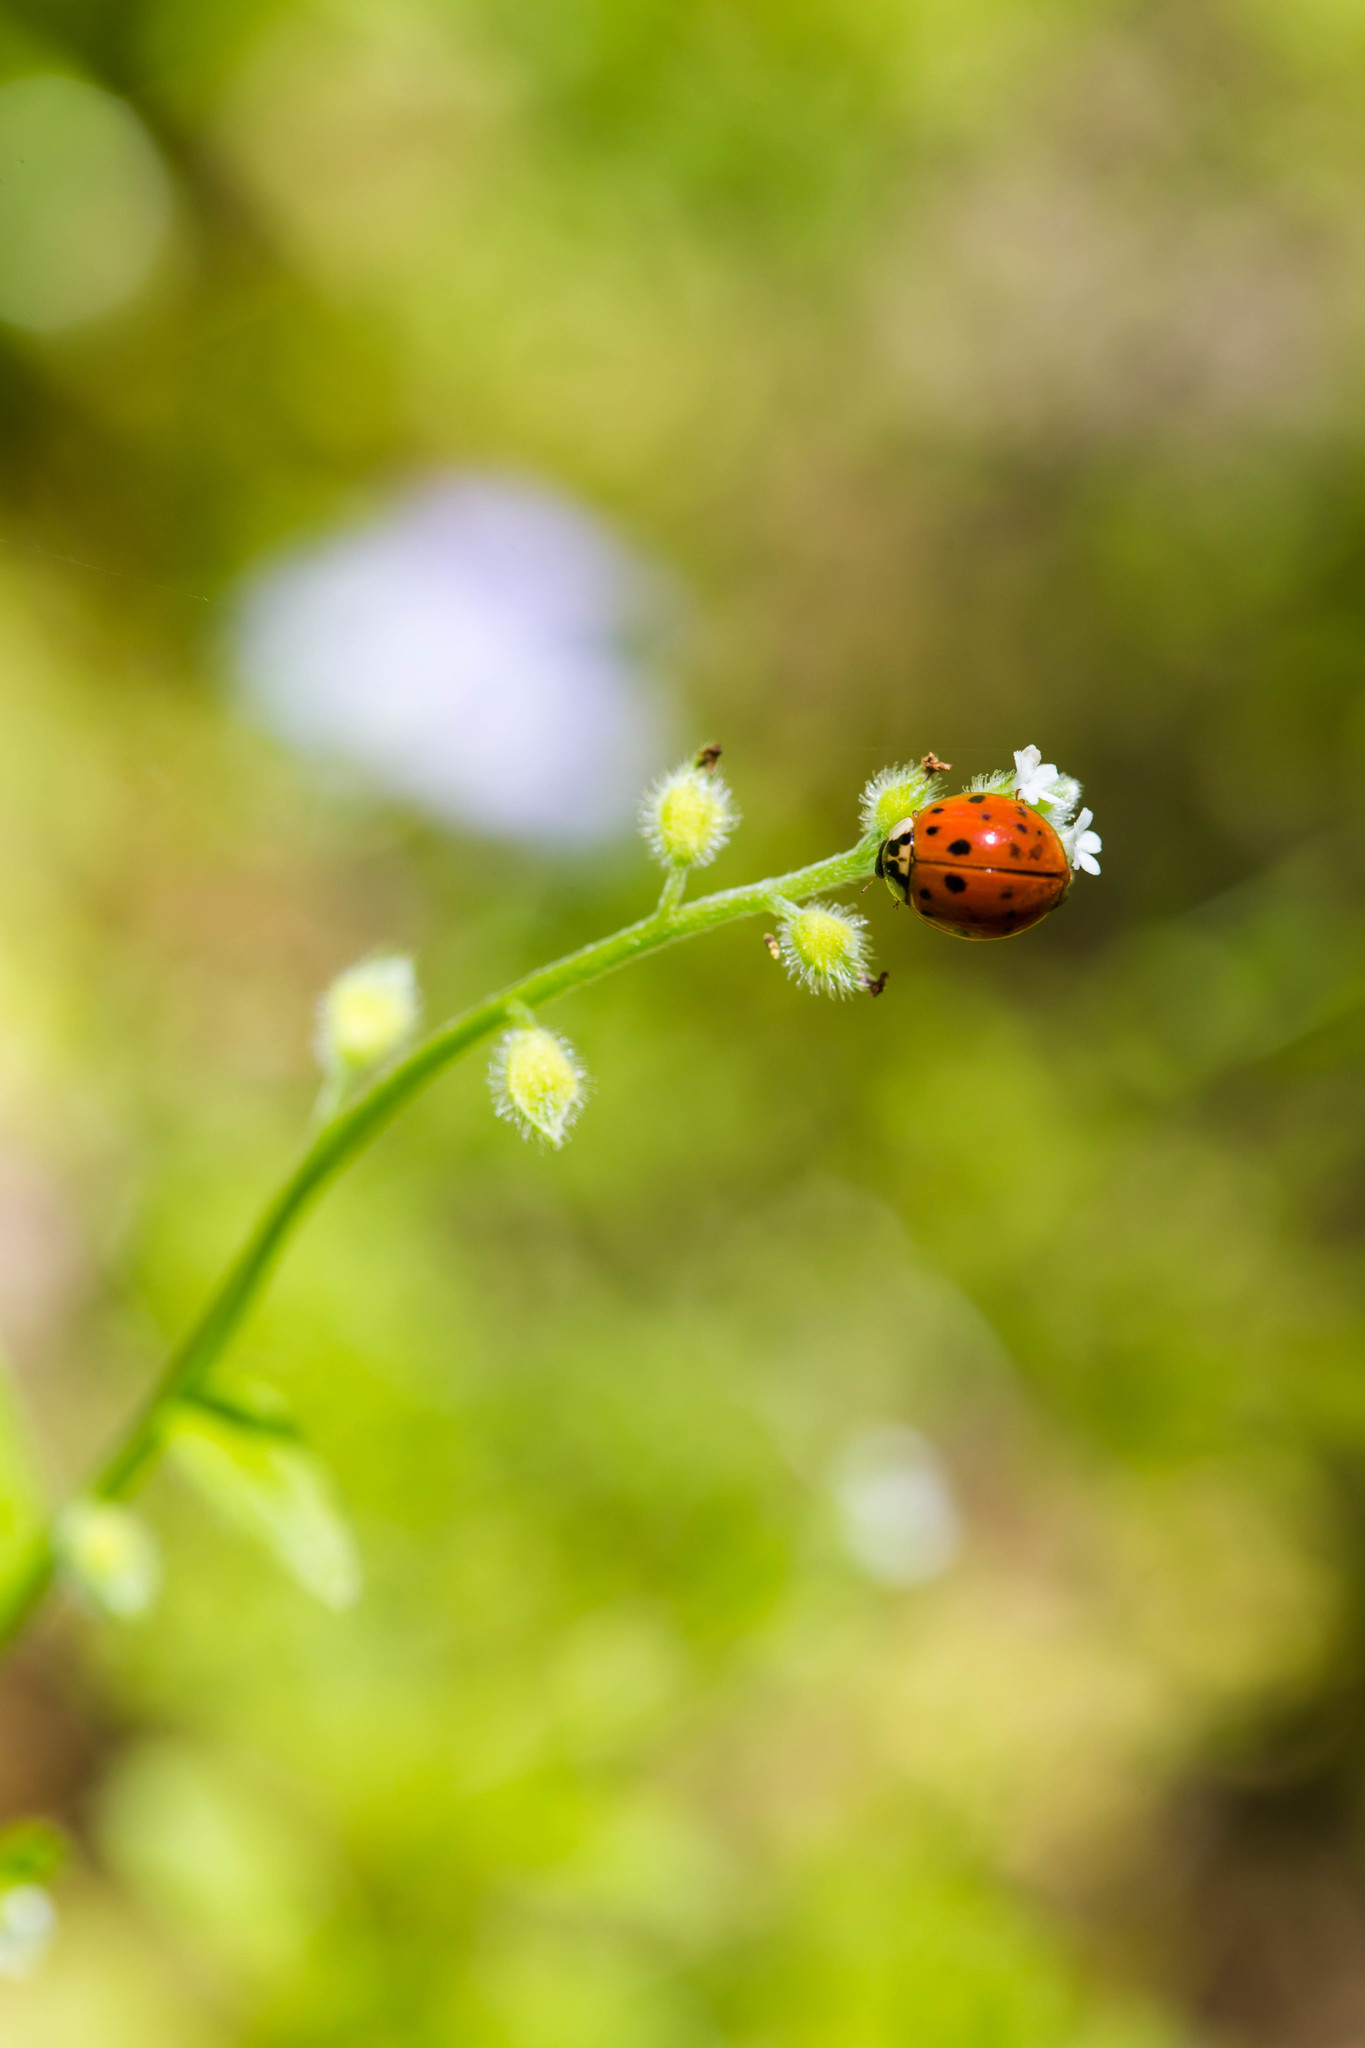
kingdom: Animalia
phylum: Arthropoda
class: Insecta
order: Coleoptera
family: Coccinellidae
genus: Harmonia
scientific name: Harmonia axyridis
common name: Harlequin ladybird
